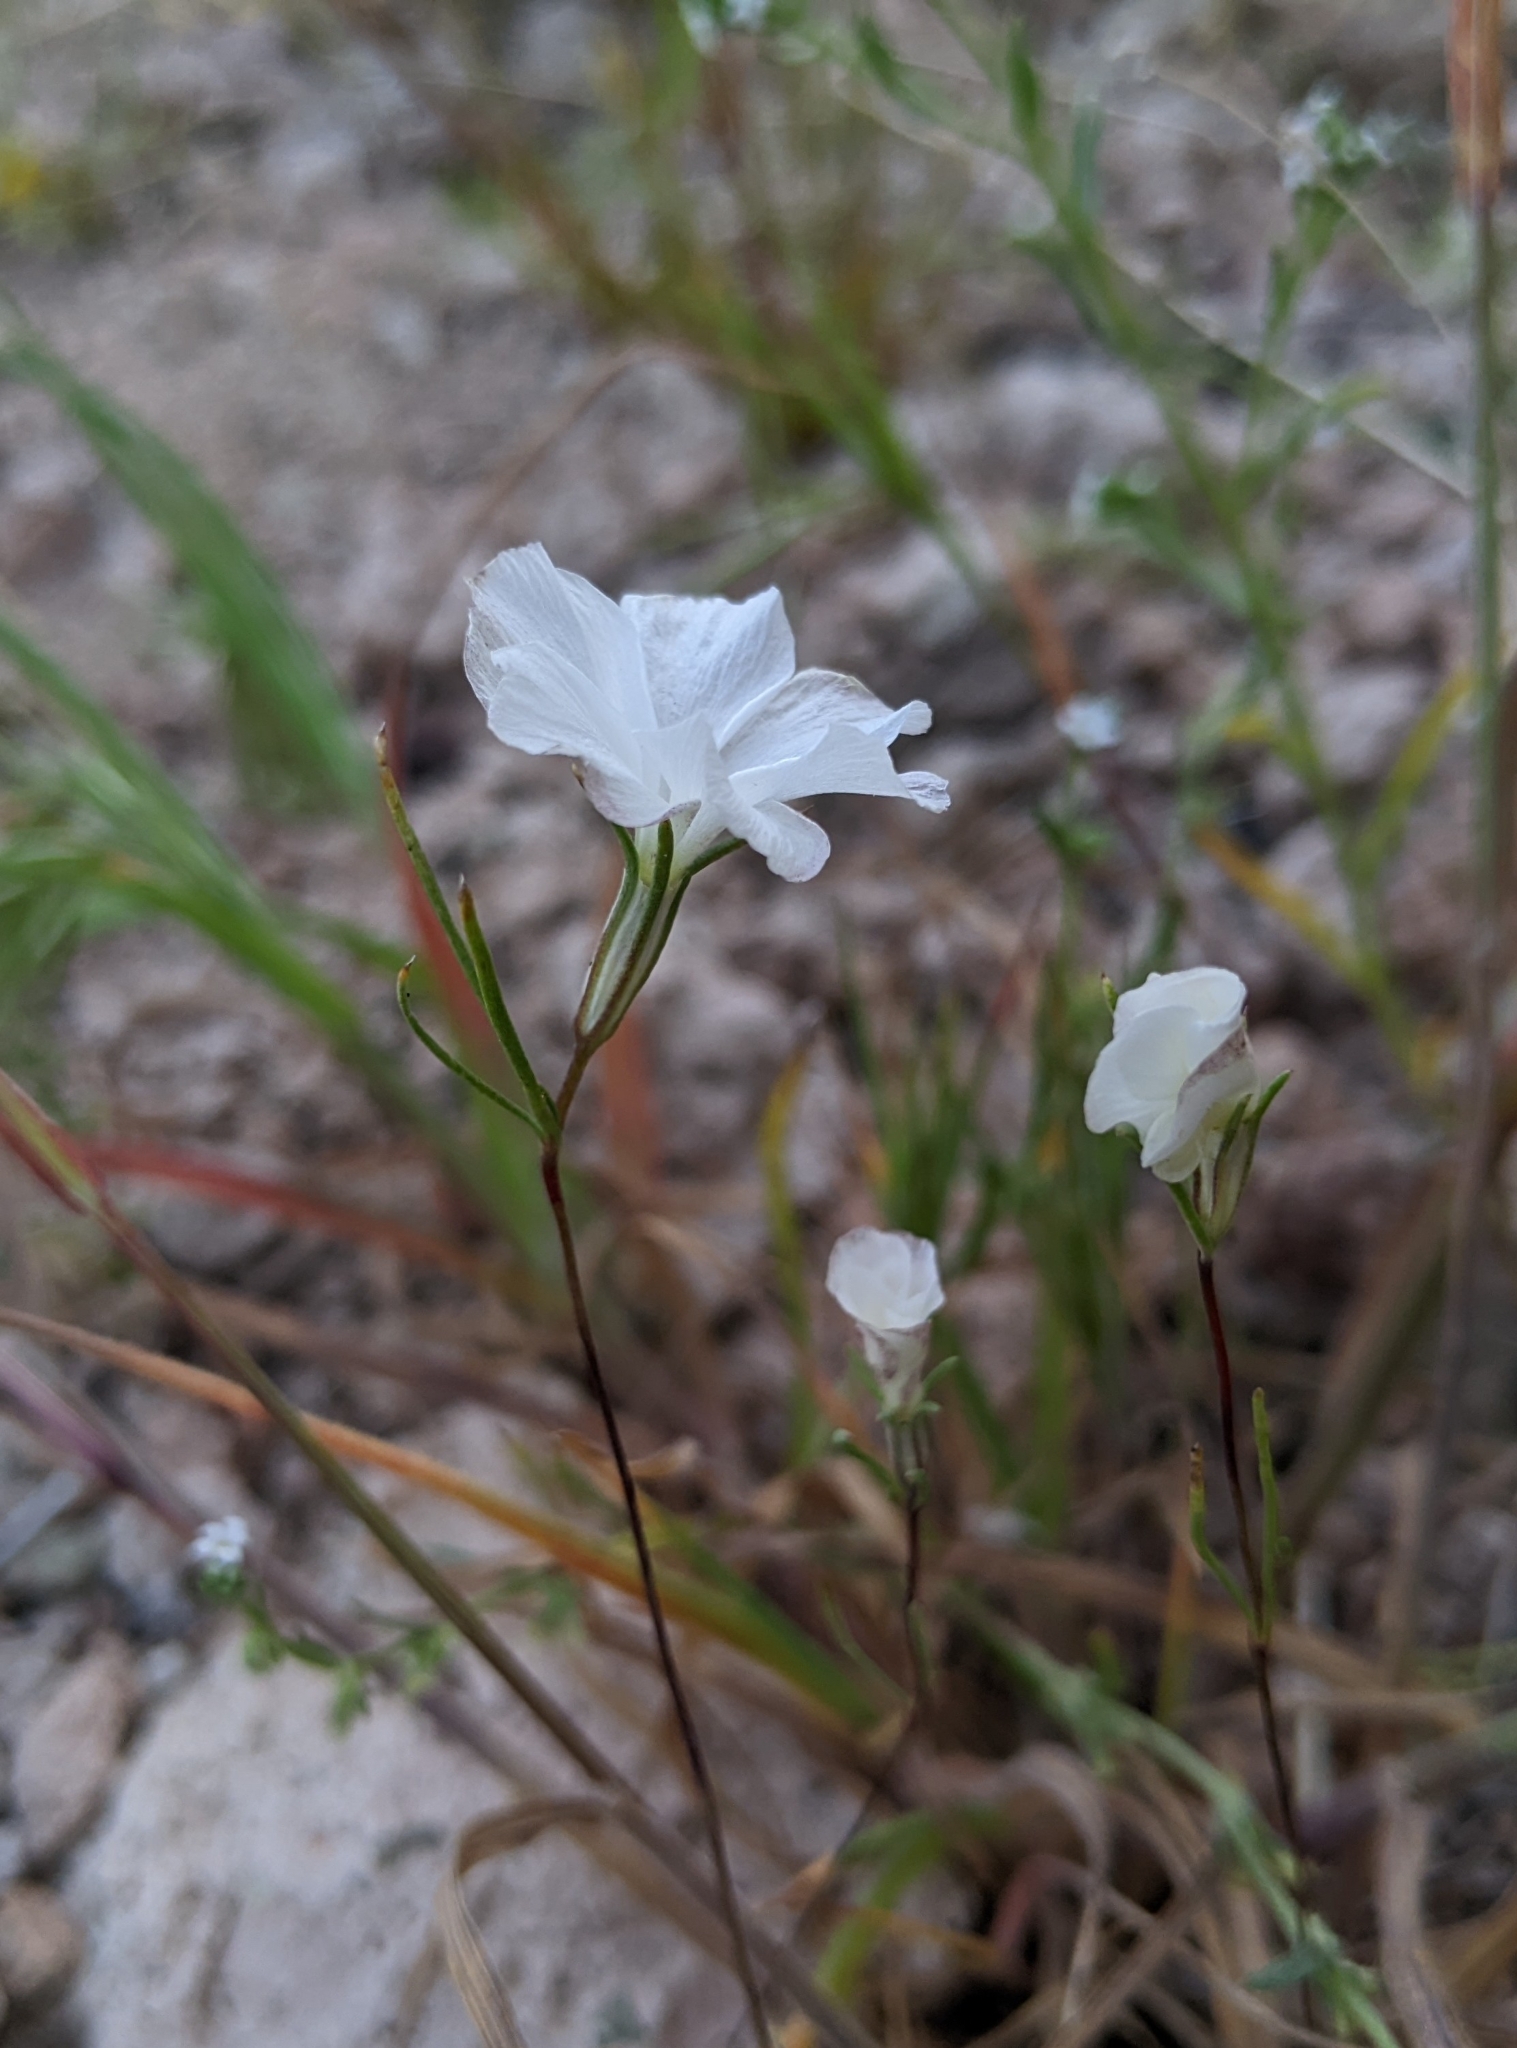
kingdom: Plantae
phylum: Tracheophyta
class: Magnoliopsida
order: Ericales
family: Polemoniaceae
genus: Linanthus
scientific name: Linanthus dichotomus
